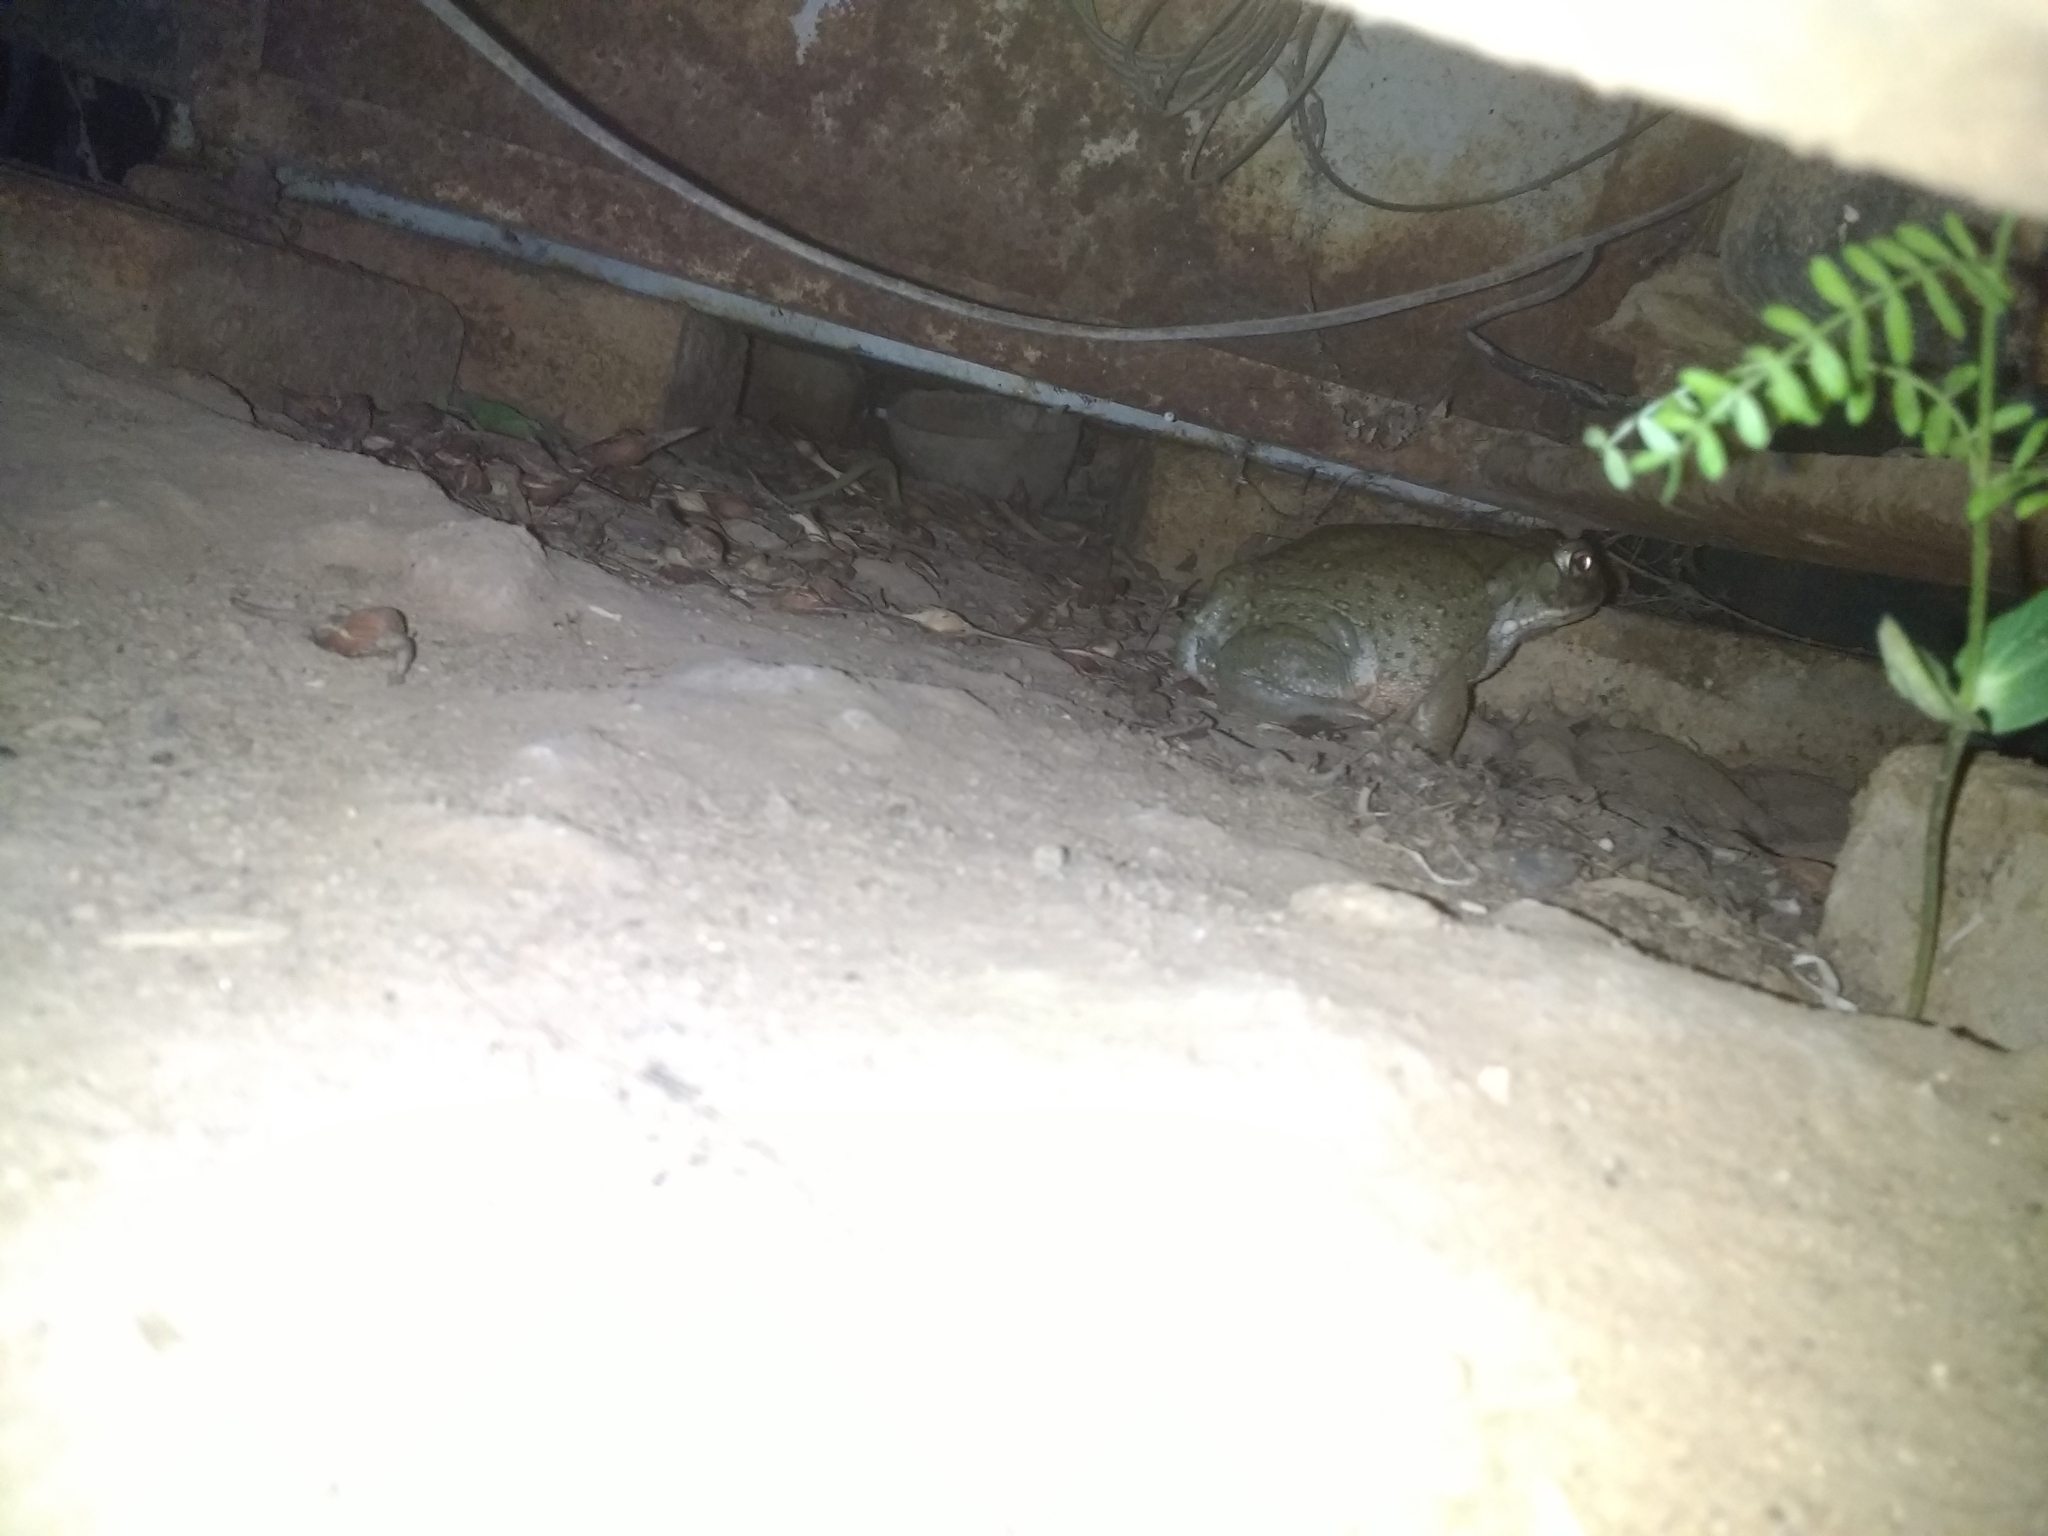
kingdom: Animalia
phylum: Chordata
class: Amphibia
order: Anura
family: Bufonidae
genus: Incilius
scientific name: Incilius alvarius
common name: Sonoran desert toad
